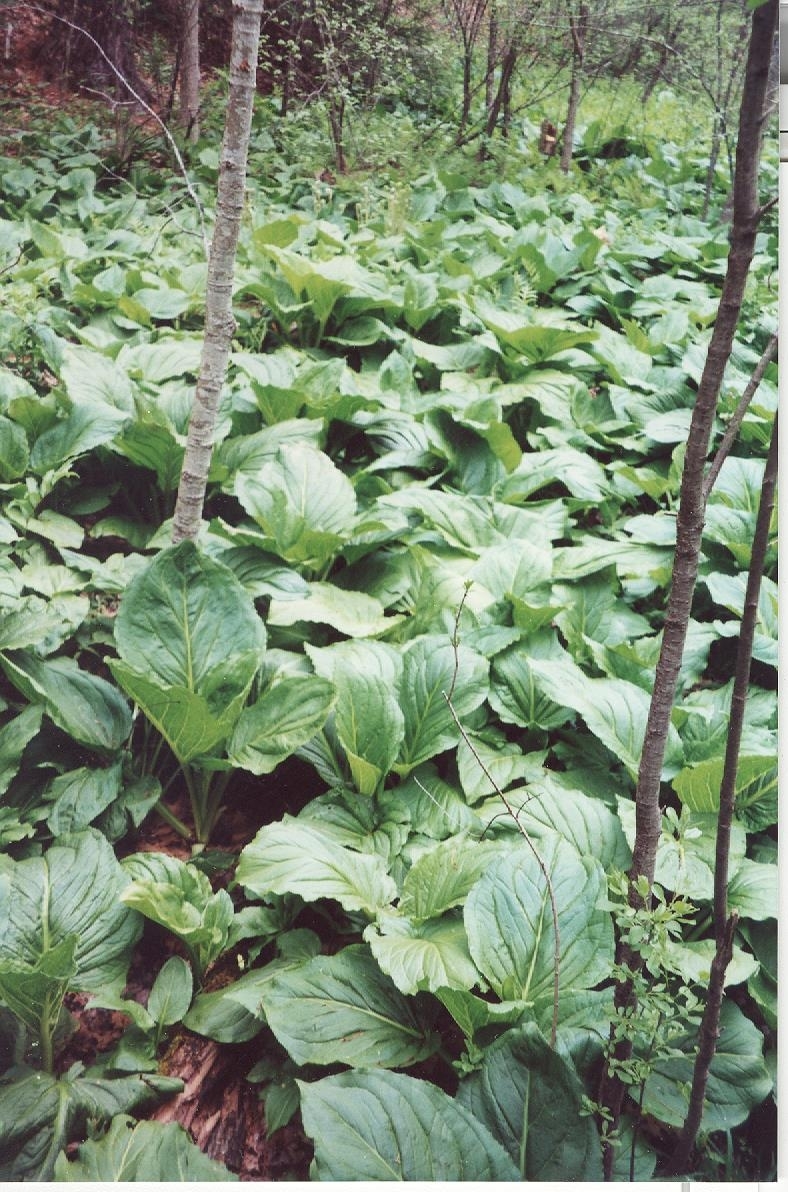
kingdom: Plantae
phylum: Tracheophyta
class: Liliopsida
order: Alismatales
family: Araceae
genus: Symplocarpus
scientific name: Symplocarpus foetidus
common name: Eastern skunk cabbage
